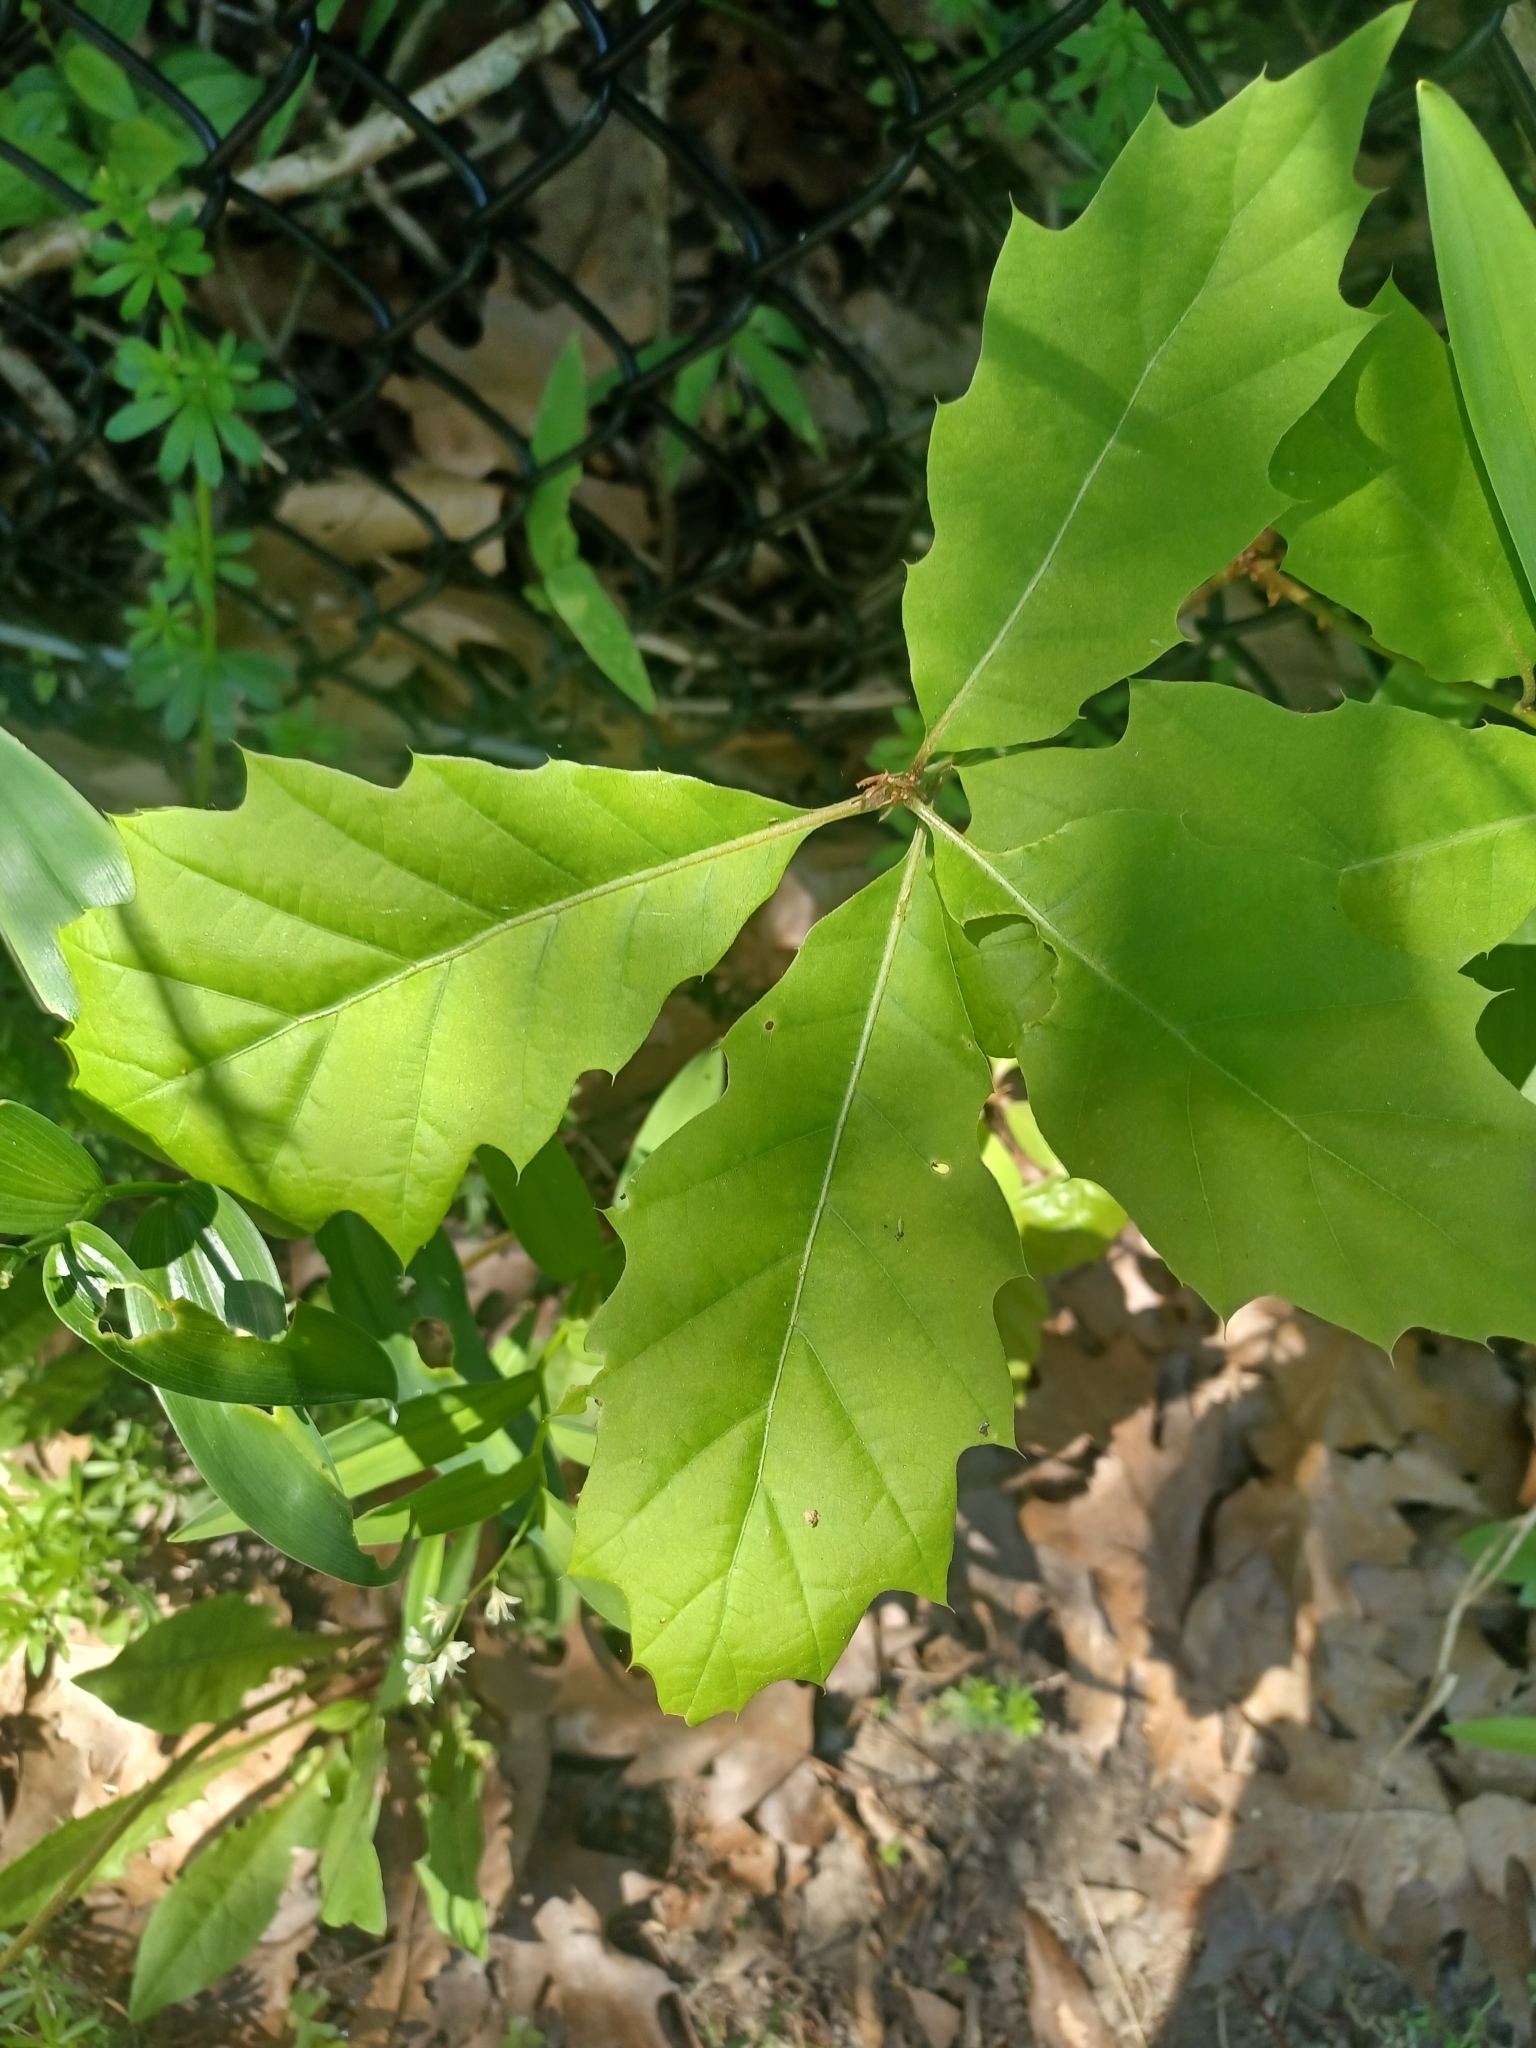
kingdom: Plantae
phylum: Tracheophyta
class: Magnoliopsida
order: Fagales
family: Fagaceae
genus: Quercus
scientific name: Quercus rubra
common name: Red oak
